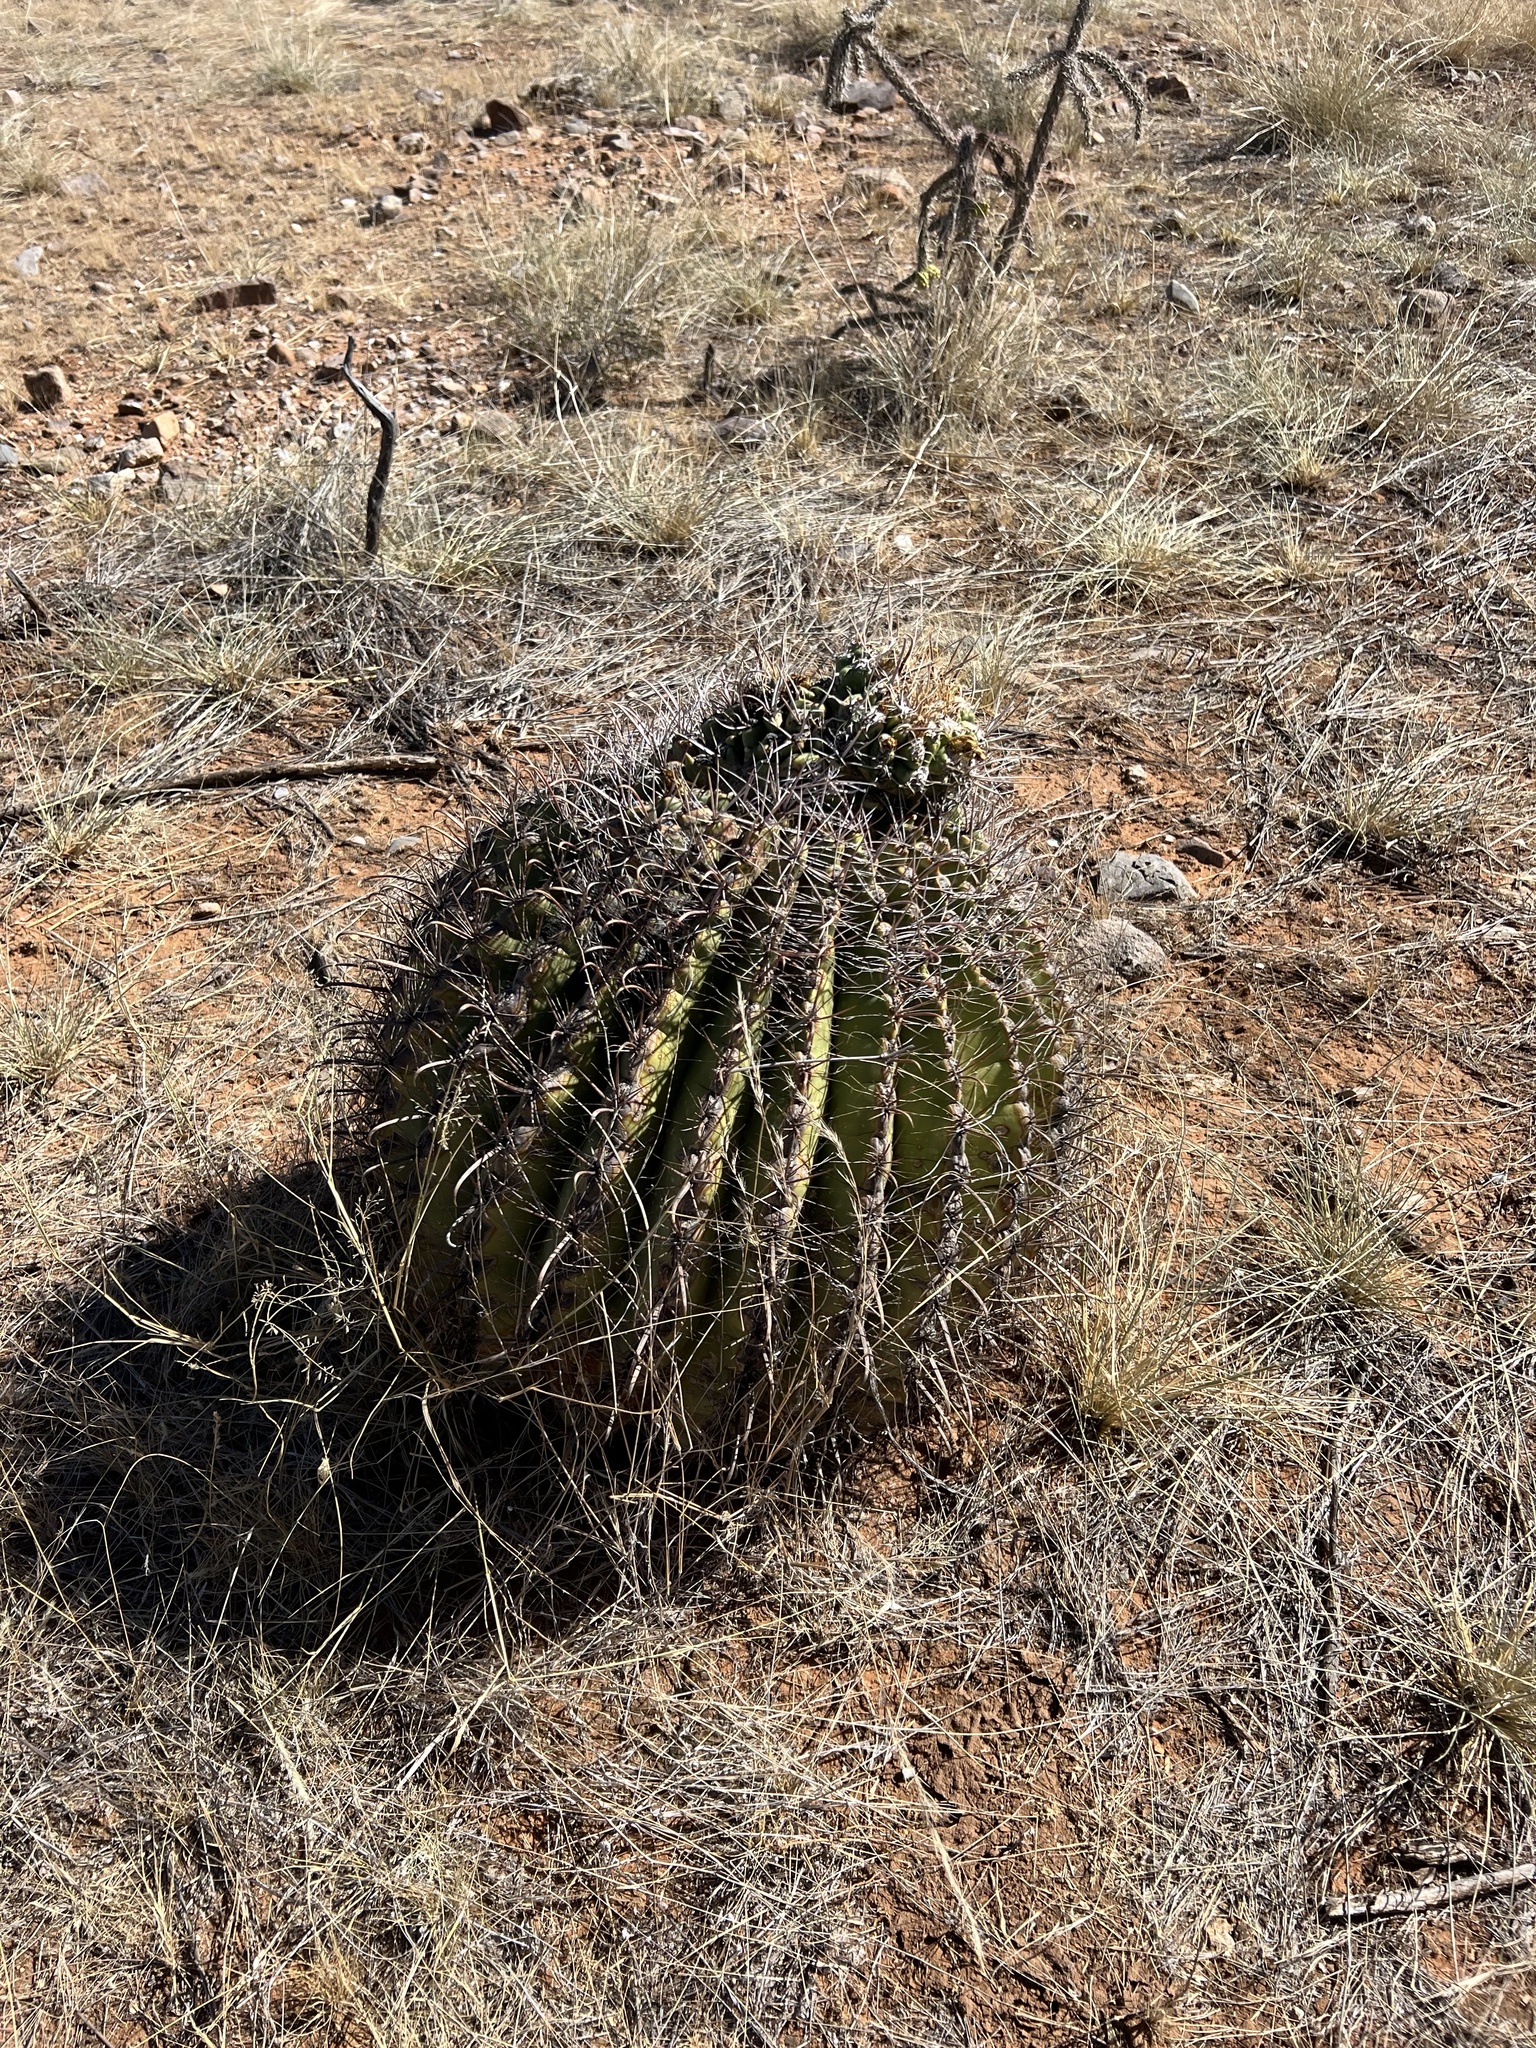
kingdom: Plantae
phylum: Tracheophyta
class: Magnoliopsida
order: Caryophyllales
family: Cactaceae
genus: Ferocactus
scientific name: Ferocactus wislizeni
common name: Candy barrel cactus
